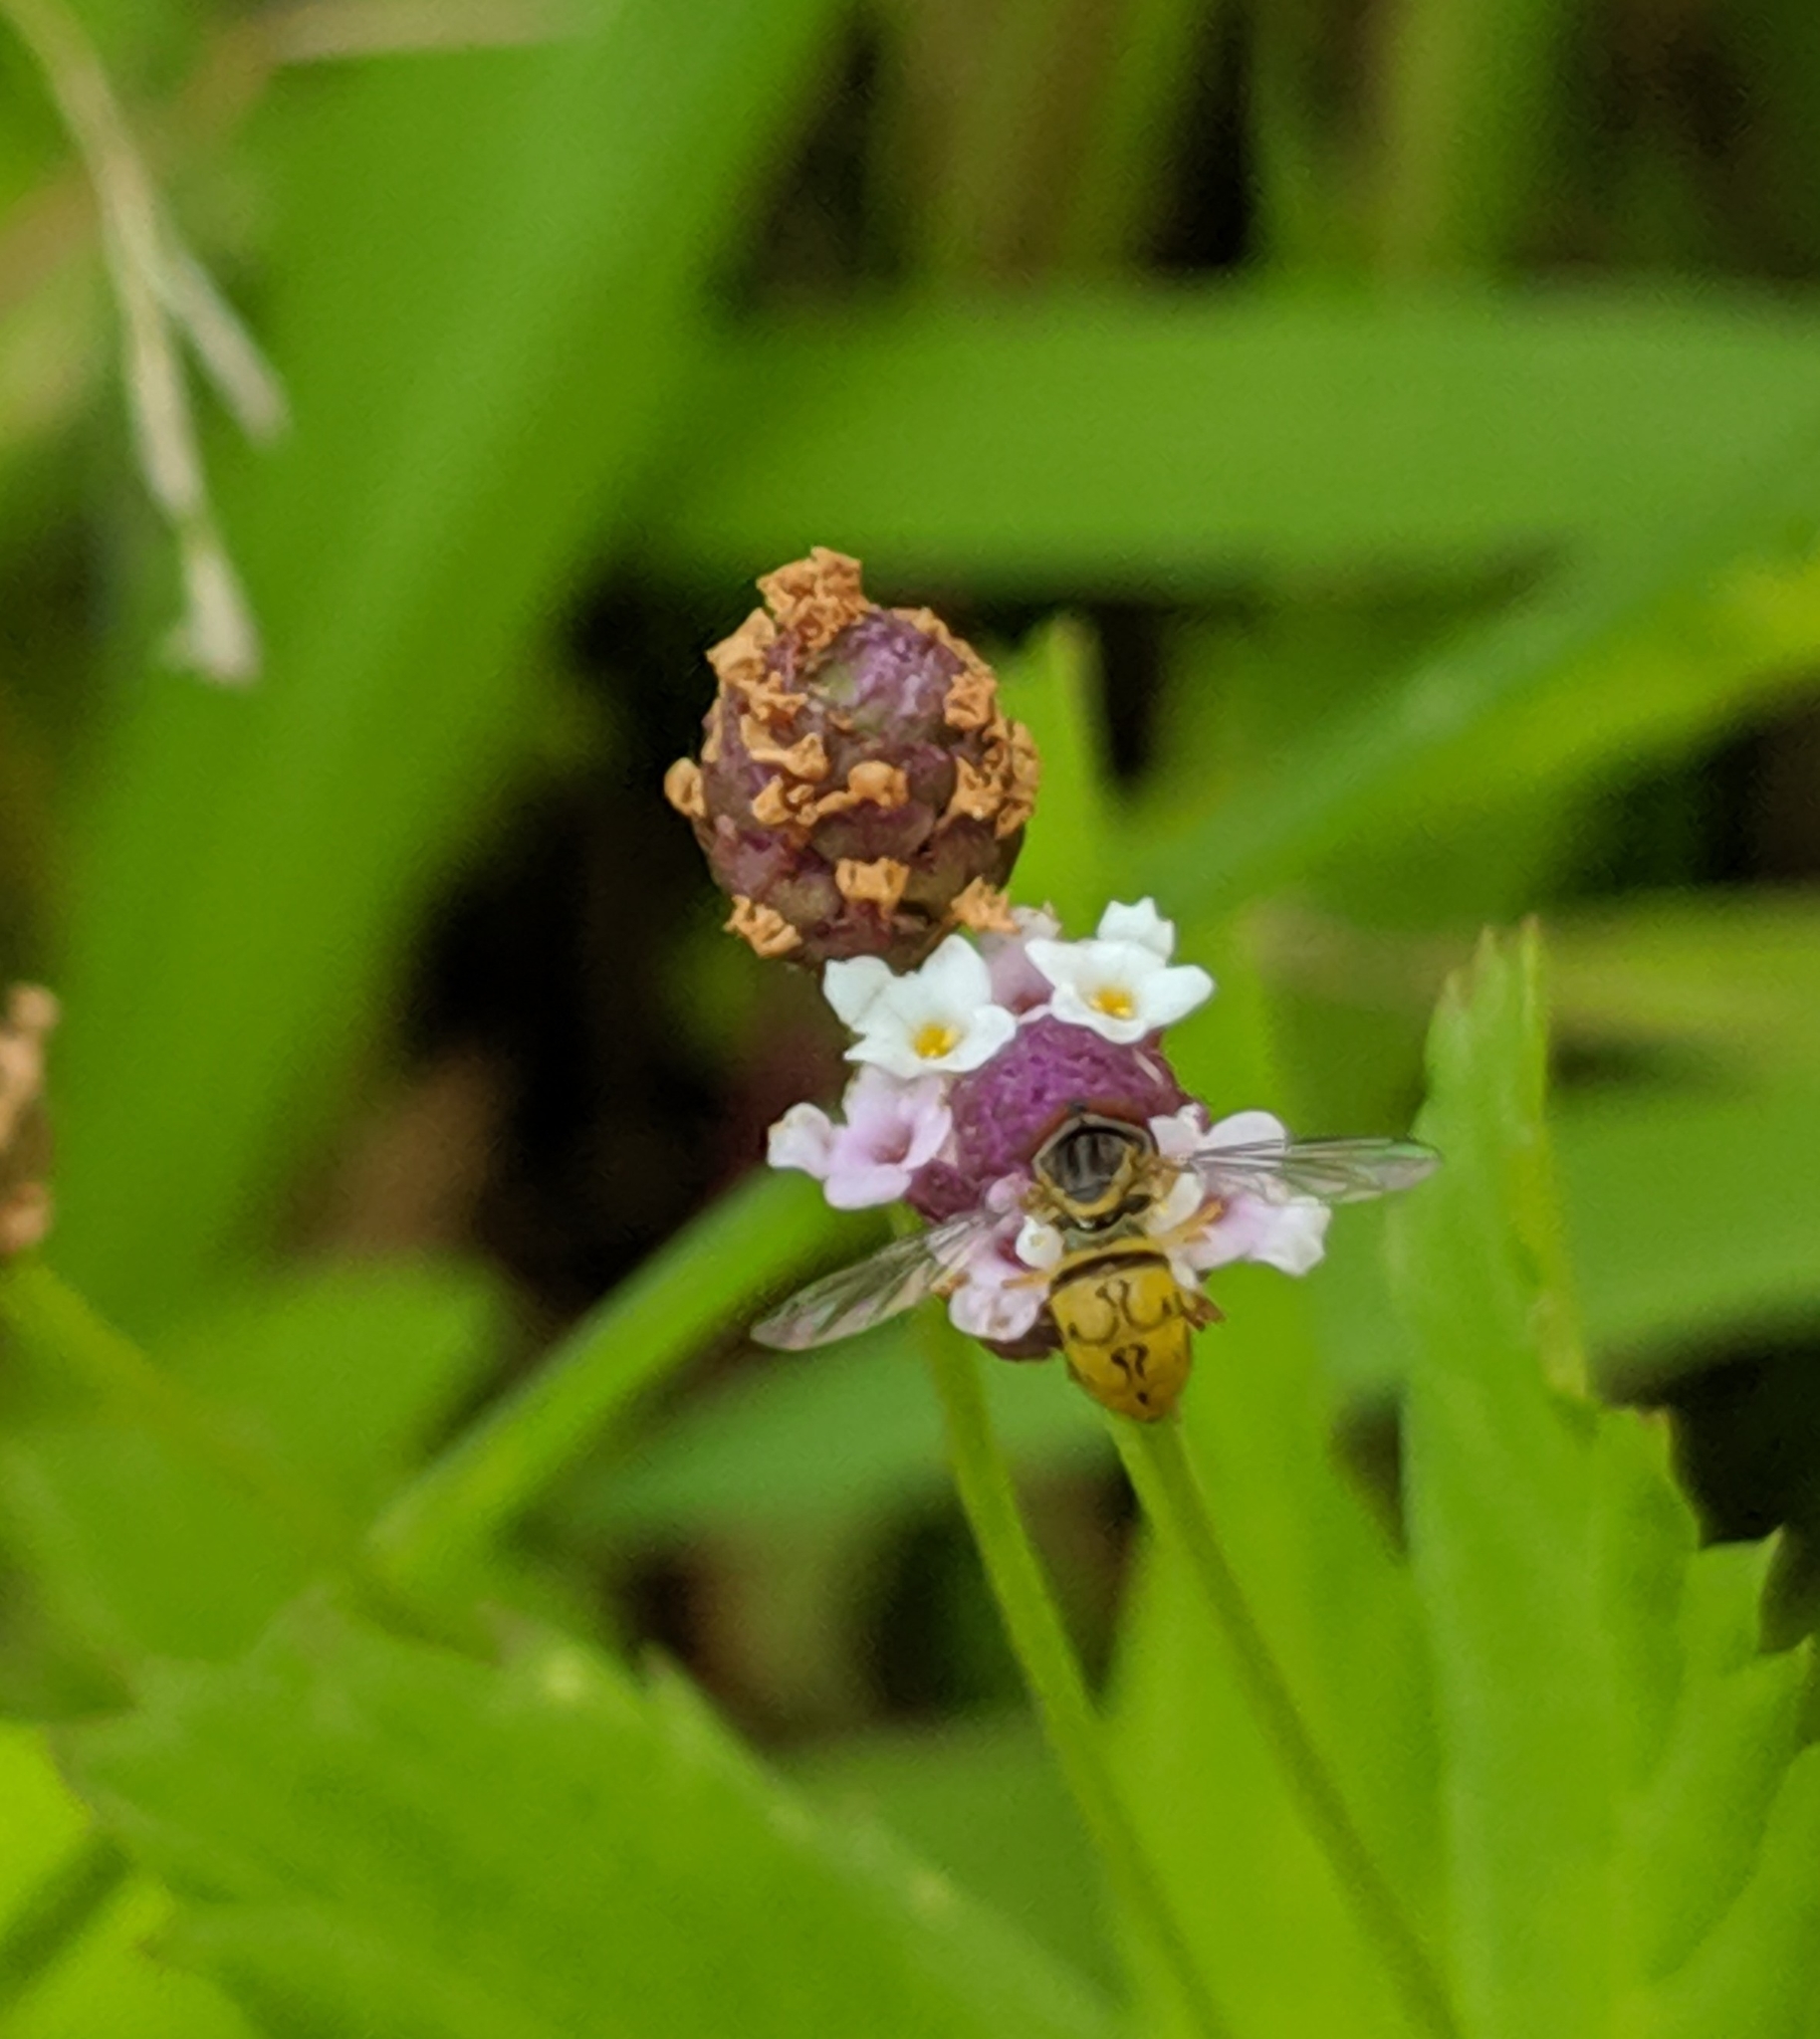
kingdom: Animalia
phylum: Arthropoda
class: Insecta
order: Diptera
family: Syrphidae
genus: Toxomerus
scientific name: Toxomerus boscii
